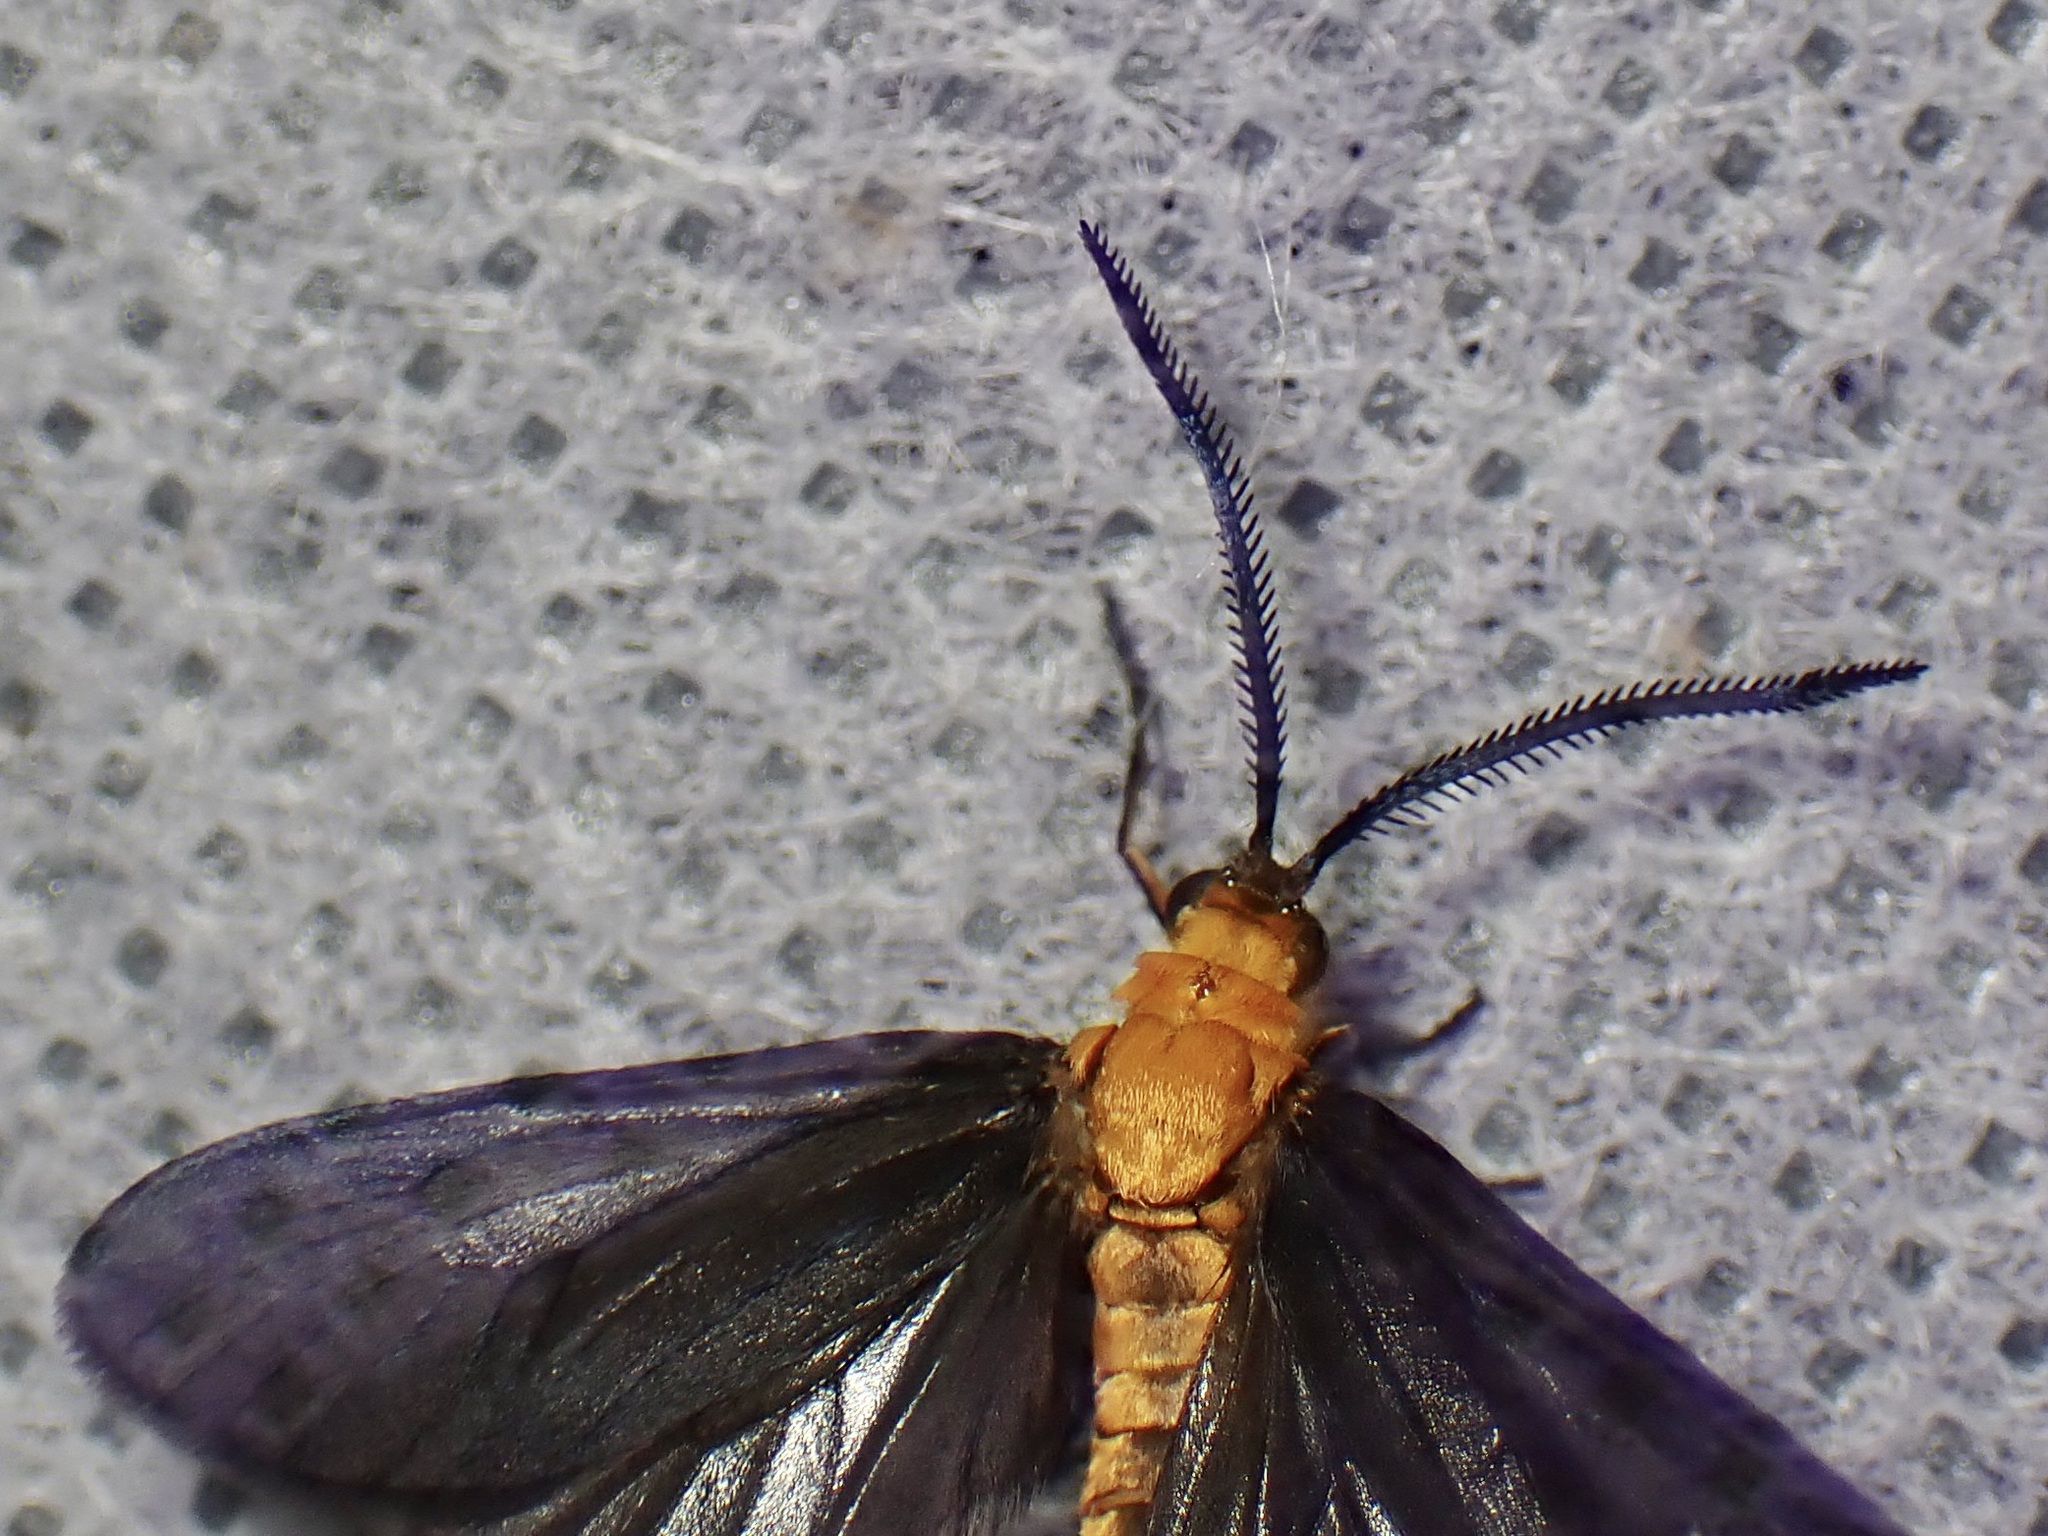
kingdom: Animalia
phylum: Arthropoda
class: Insecta
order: Lepidoptera
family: Zygaenidae
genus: Neoilliberis
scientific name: Neoilliberis fusca
